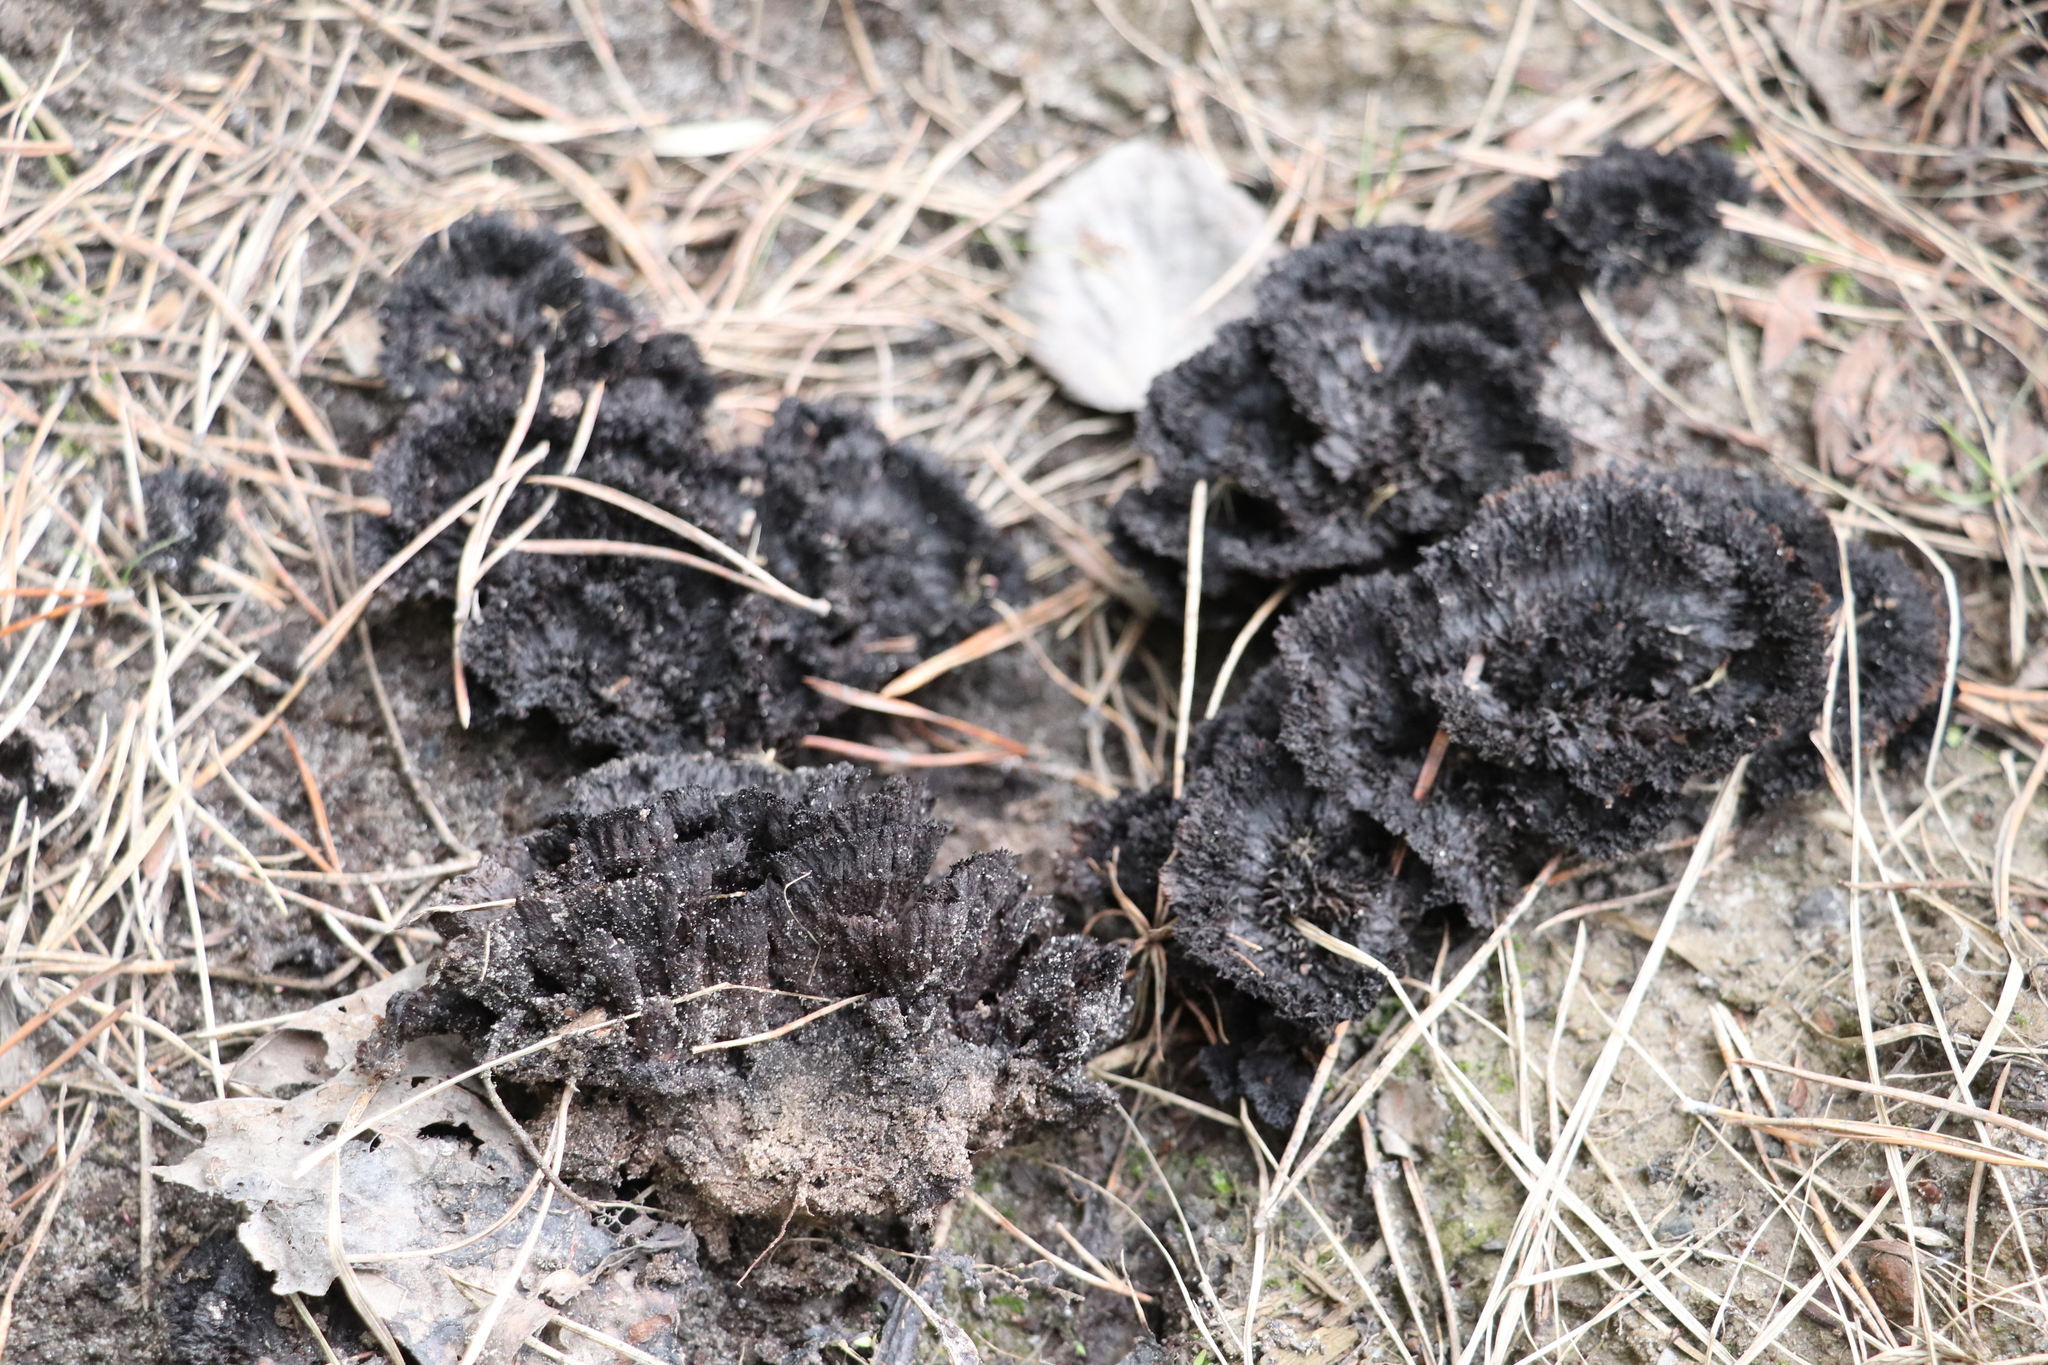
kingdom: Fungi
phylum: Basidiomycota
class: Agaricomycetes
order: Thelephorales
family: Thelephoraceae
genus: Thelephora
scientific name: Thelephora terrestris
